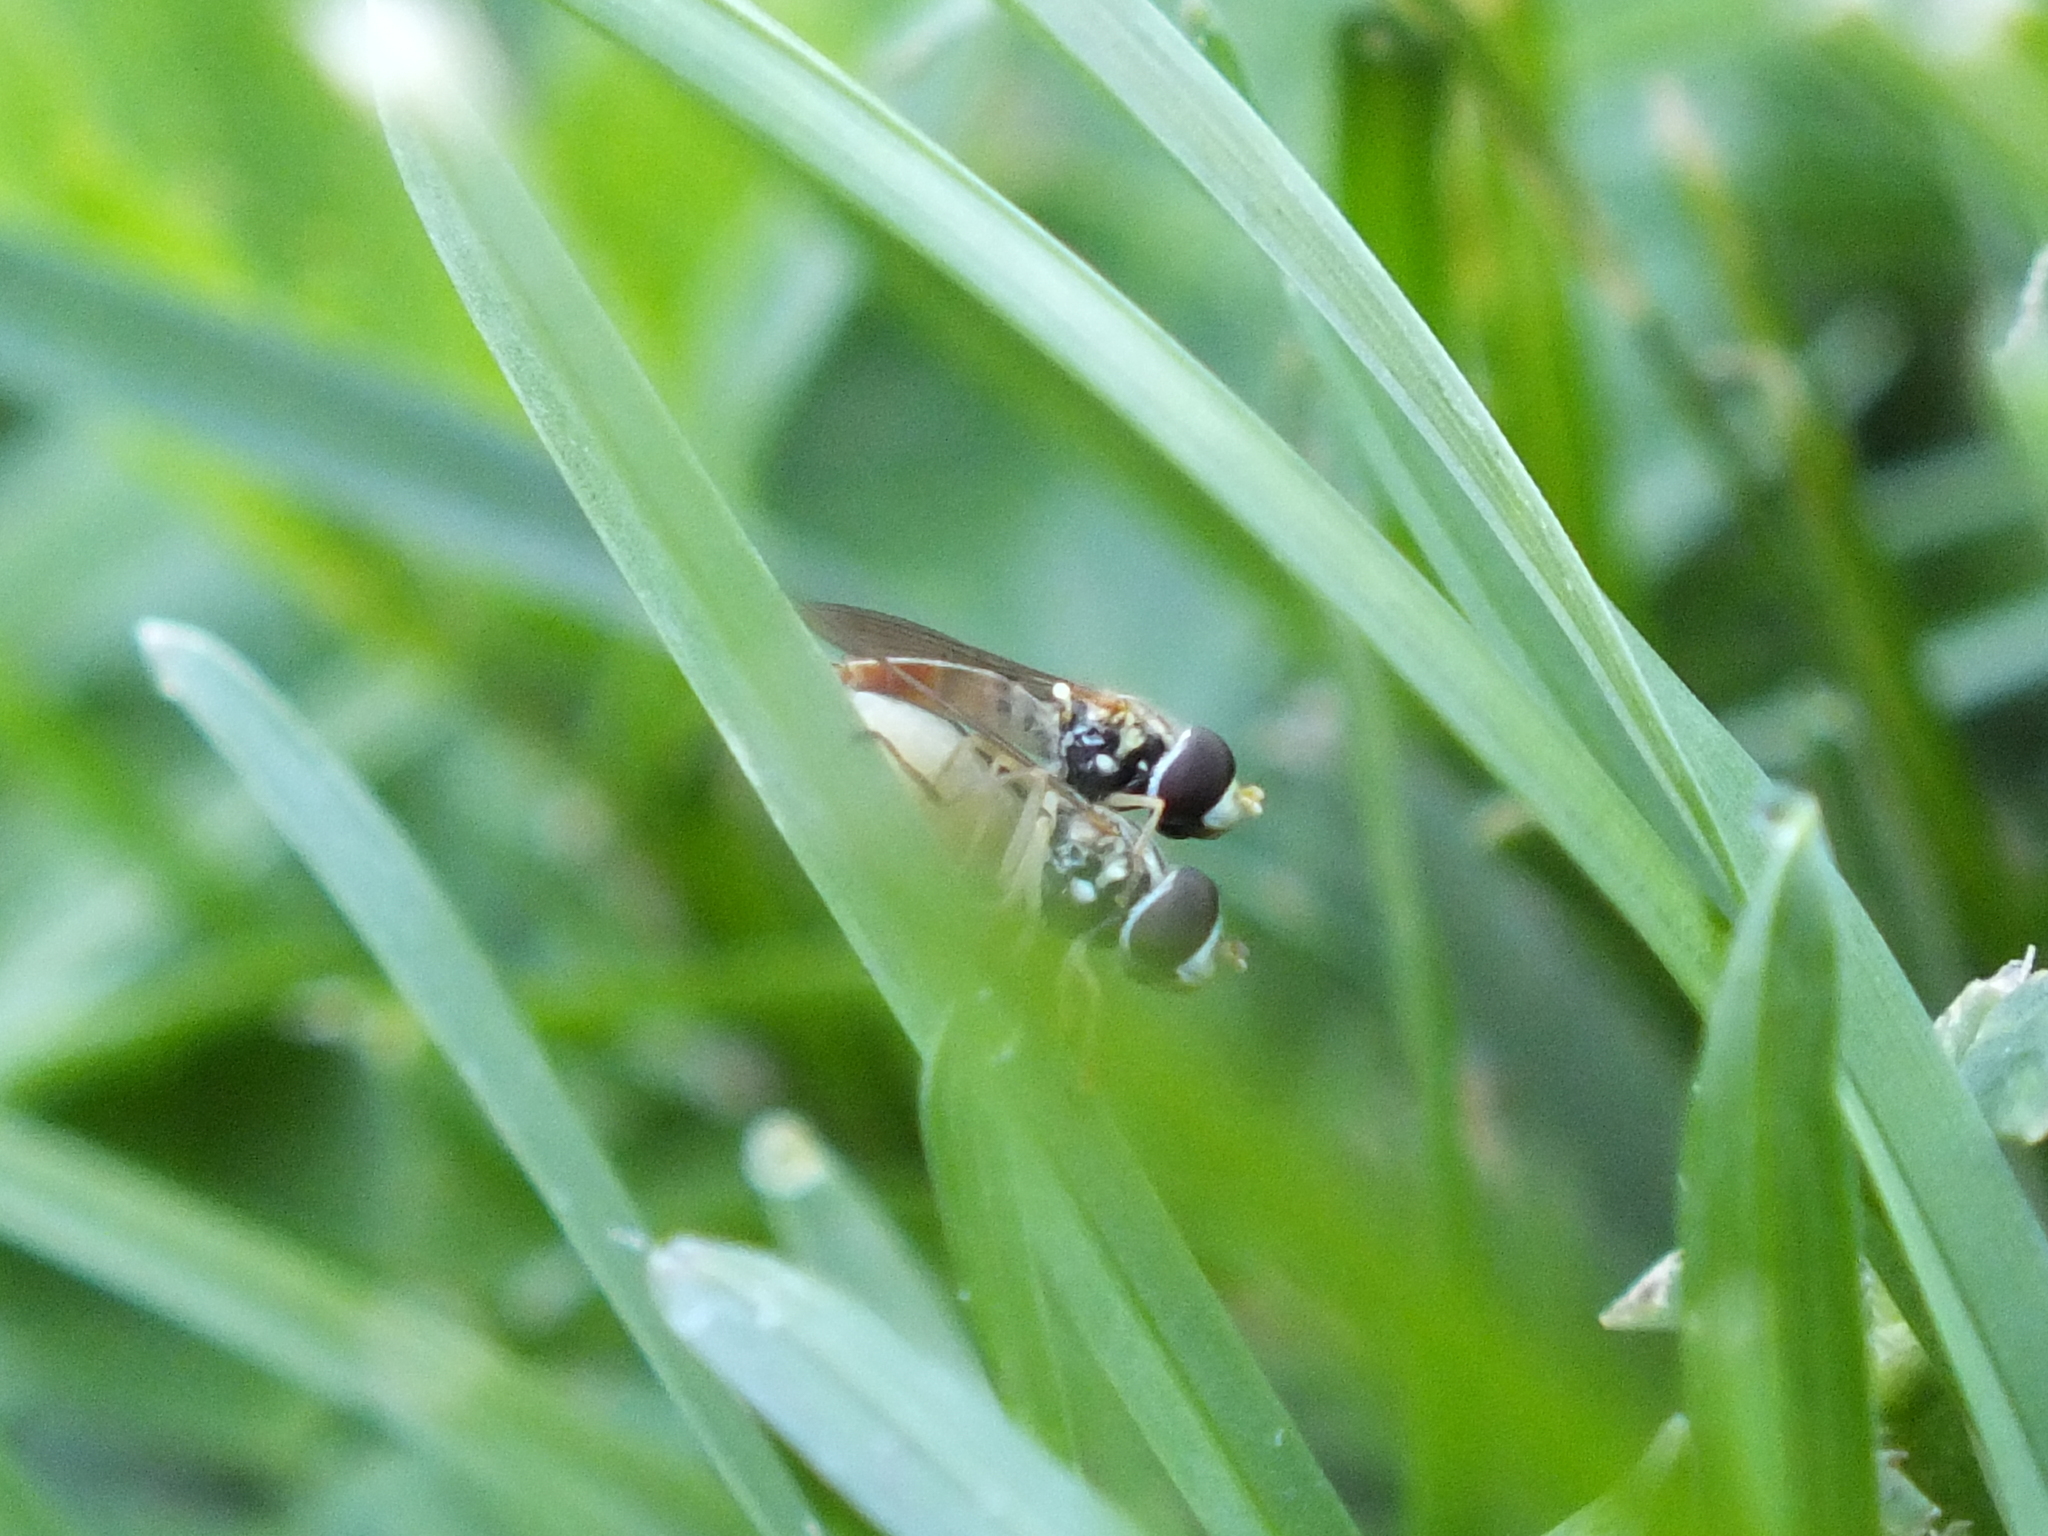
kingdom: Animalia
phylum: Arthropoda
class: Insecta
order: Diptera
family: Syrphidae
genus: Toxomerus
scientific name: Toxomerus marginatus
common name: Syrphid fly
